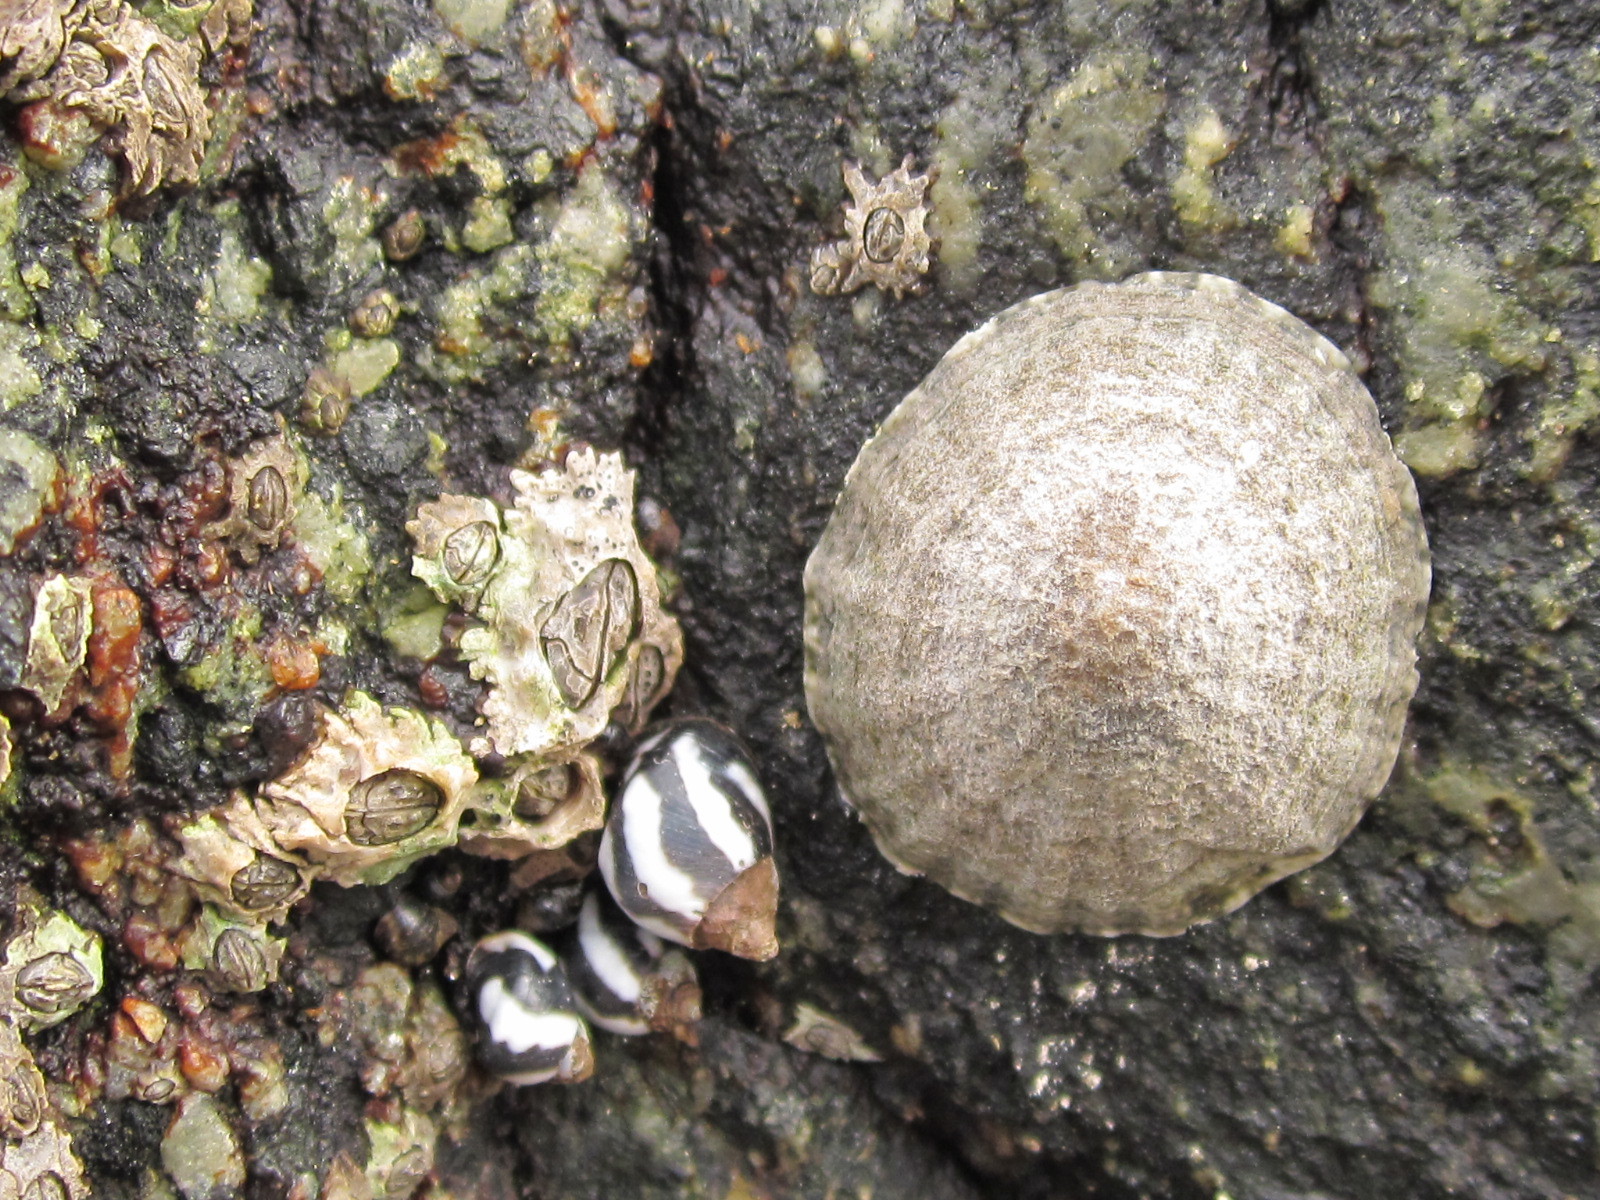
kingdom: Animalia
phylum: Mollusca
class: Gastropoda
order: Littorinimorpha
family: Littorinidae
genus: Echinolittorina
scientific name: Echinolittorina peruviana
